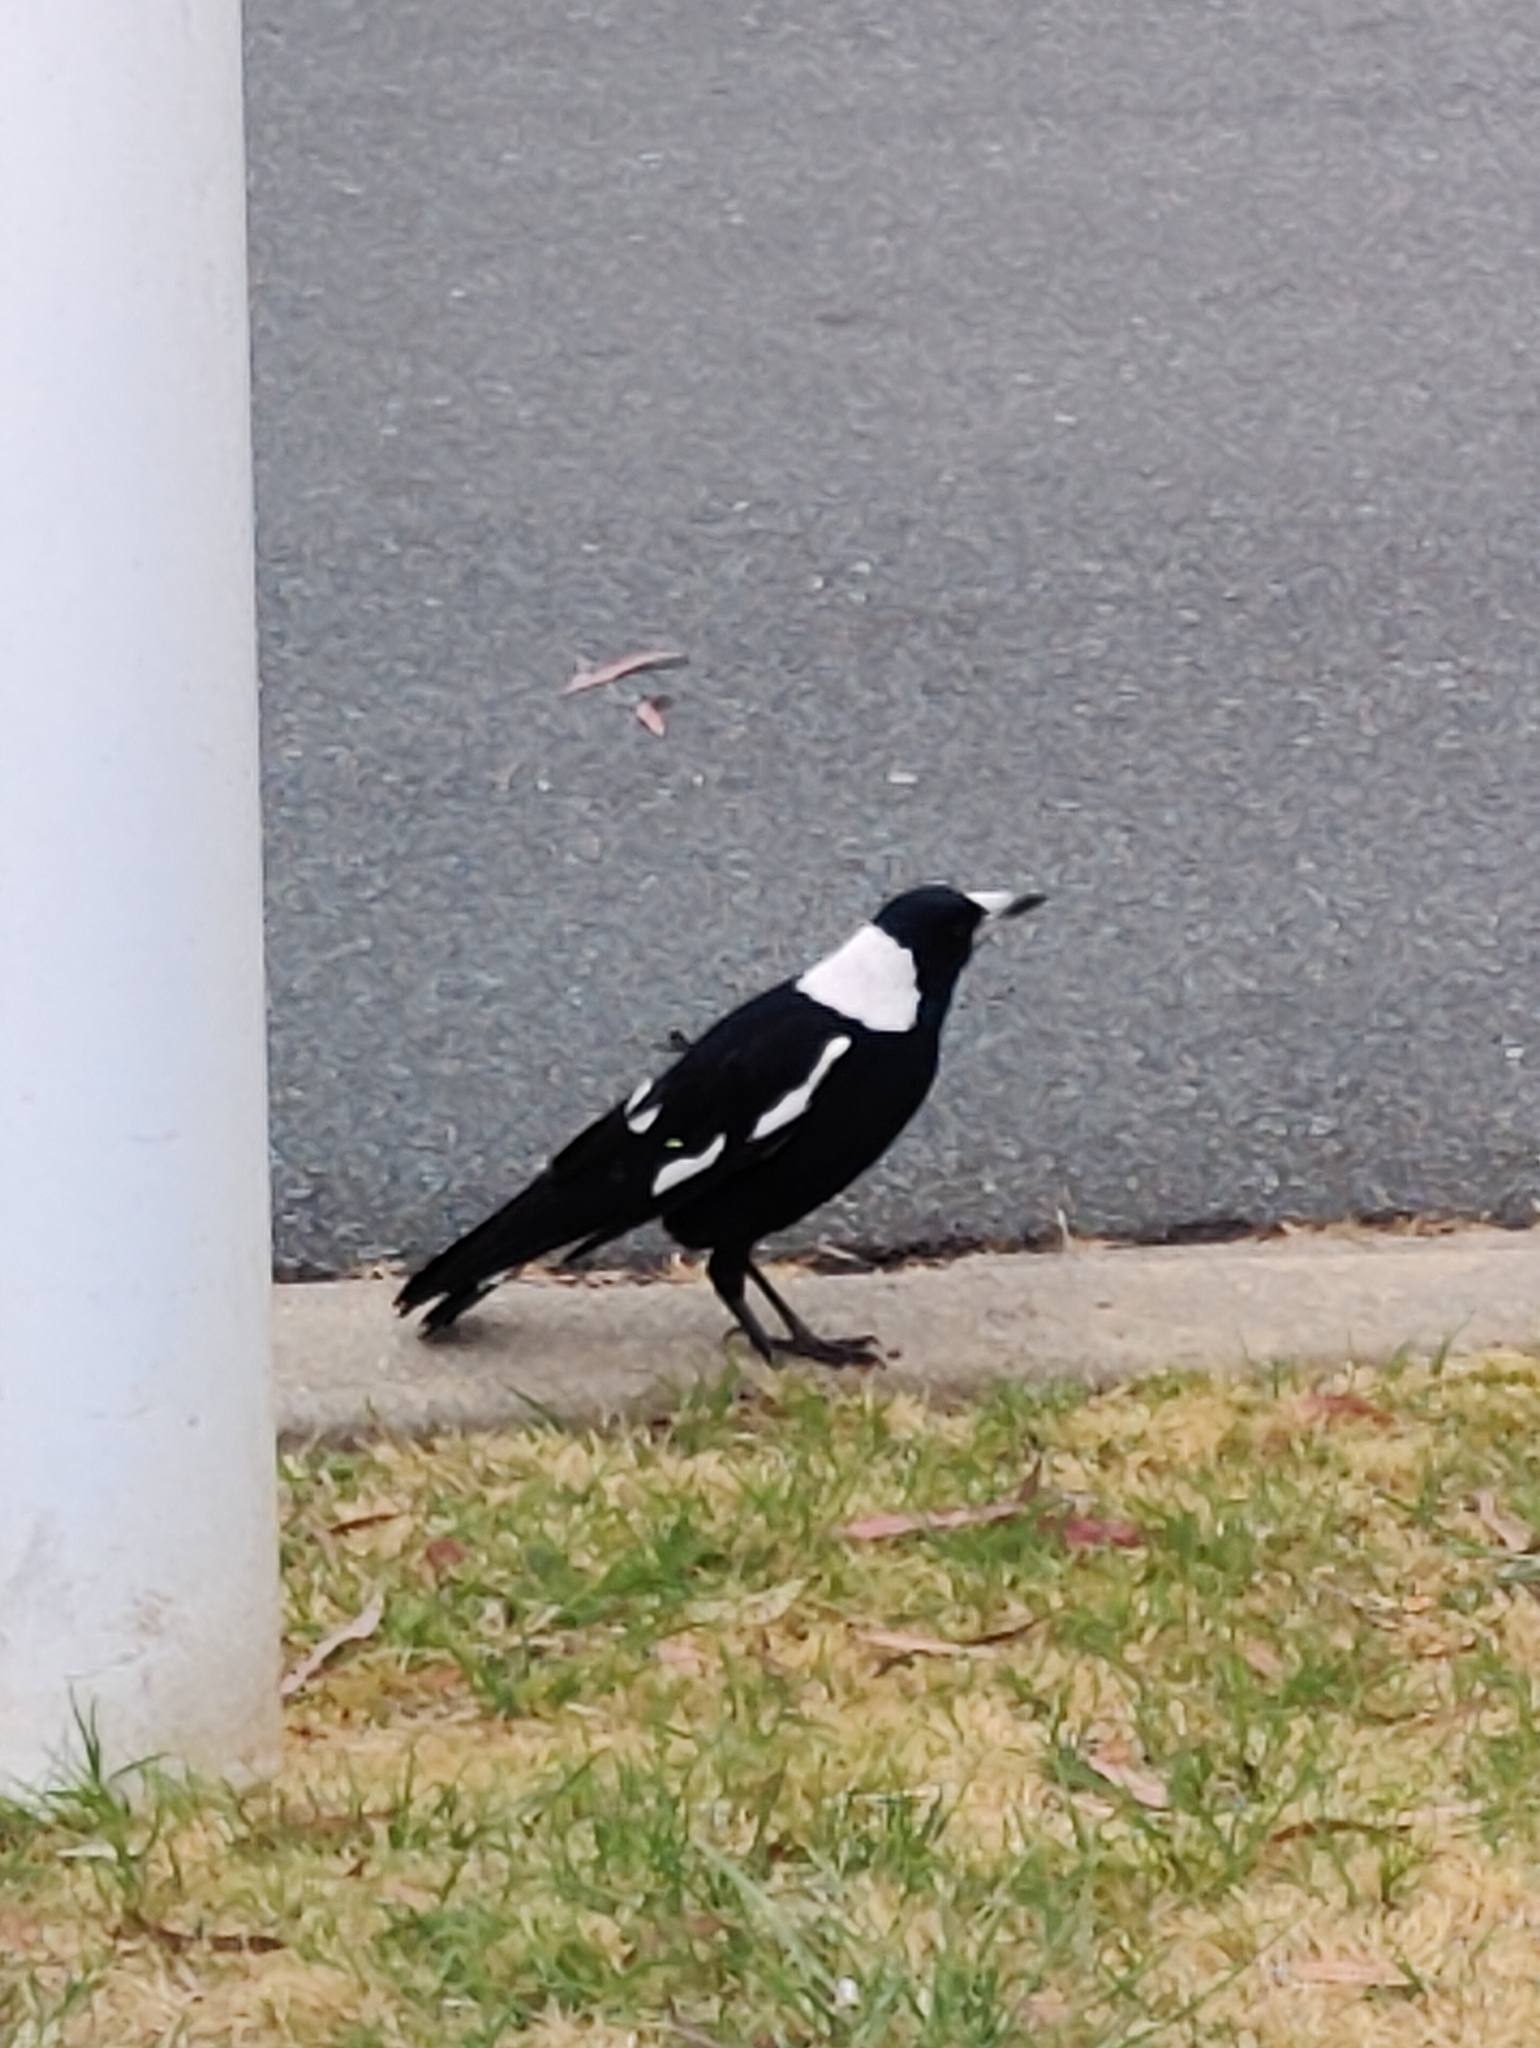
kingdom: Animalia
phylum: Chordata
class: Aves
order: Passeriformes
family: Cracticidae
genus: Gymnorhina
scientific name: Gymnorhina tibicen
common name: Australian magpie
